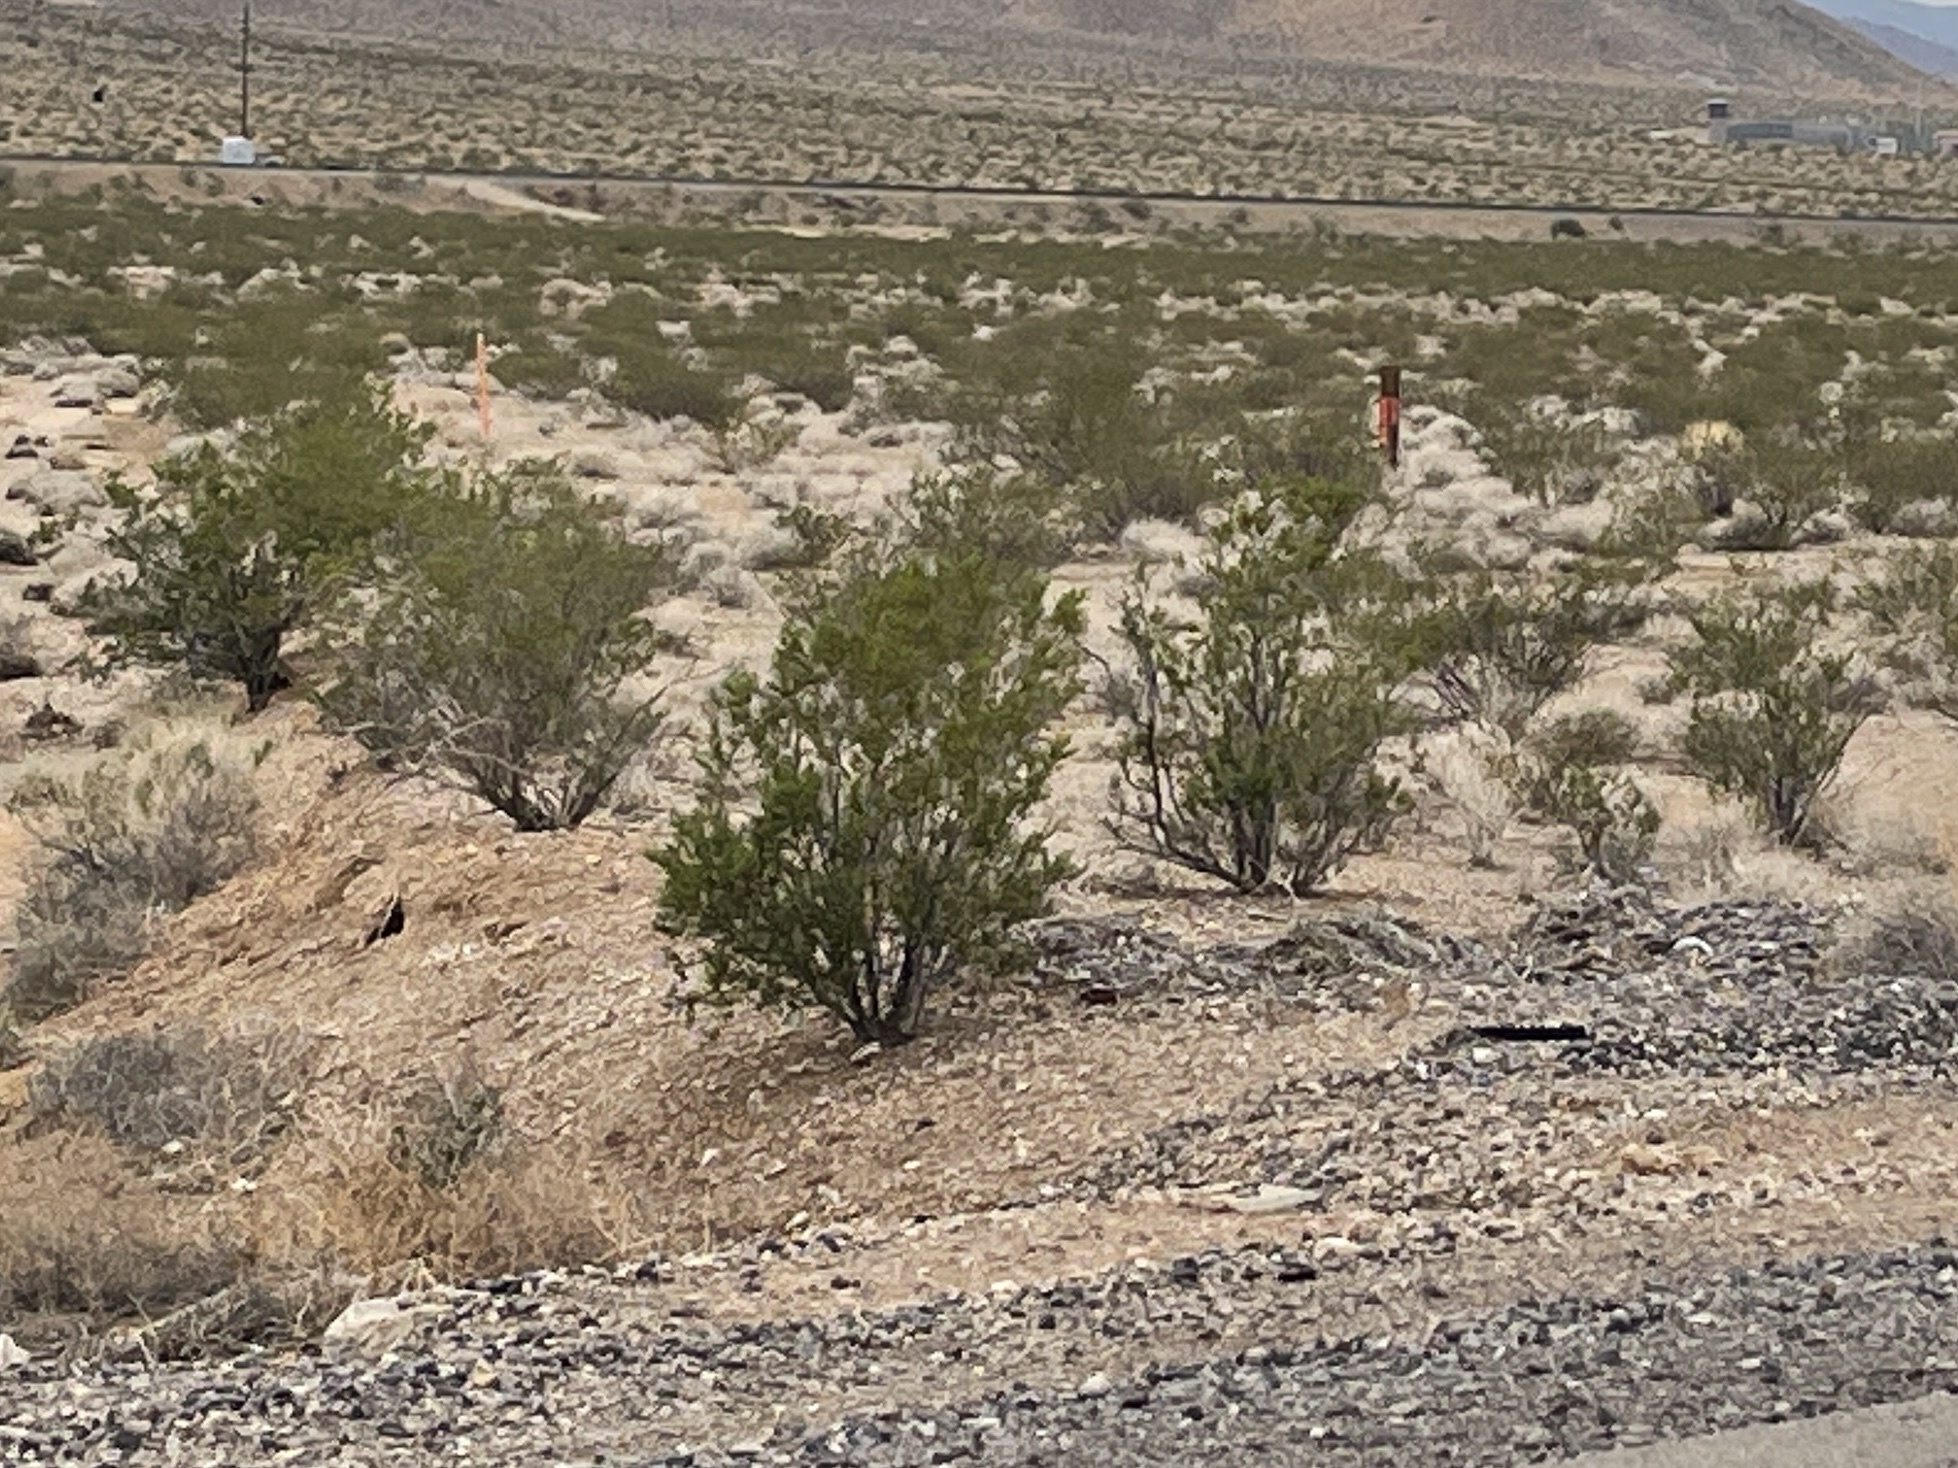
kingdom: Plantae
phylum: Tracheophyta
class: Magnoliopsida
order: Zygophyllales
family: Zygophyllaceae
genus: Larrea
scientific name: Larrea tridentata
